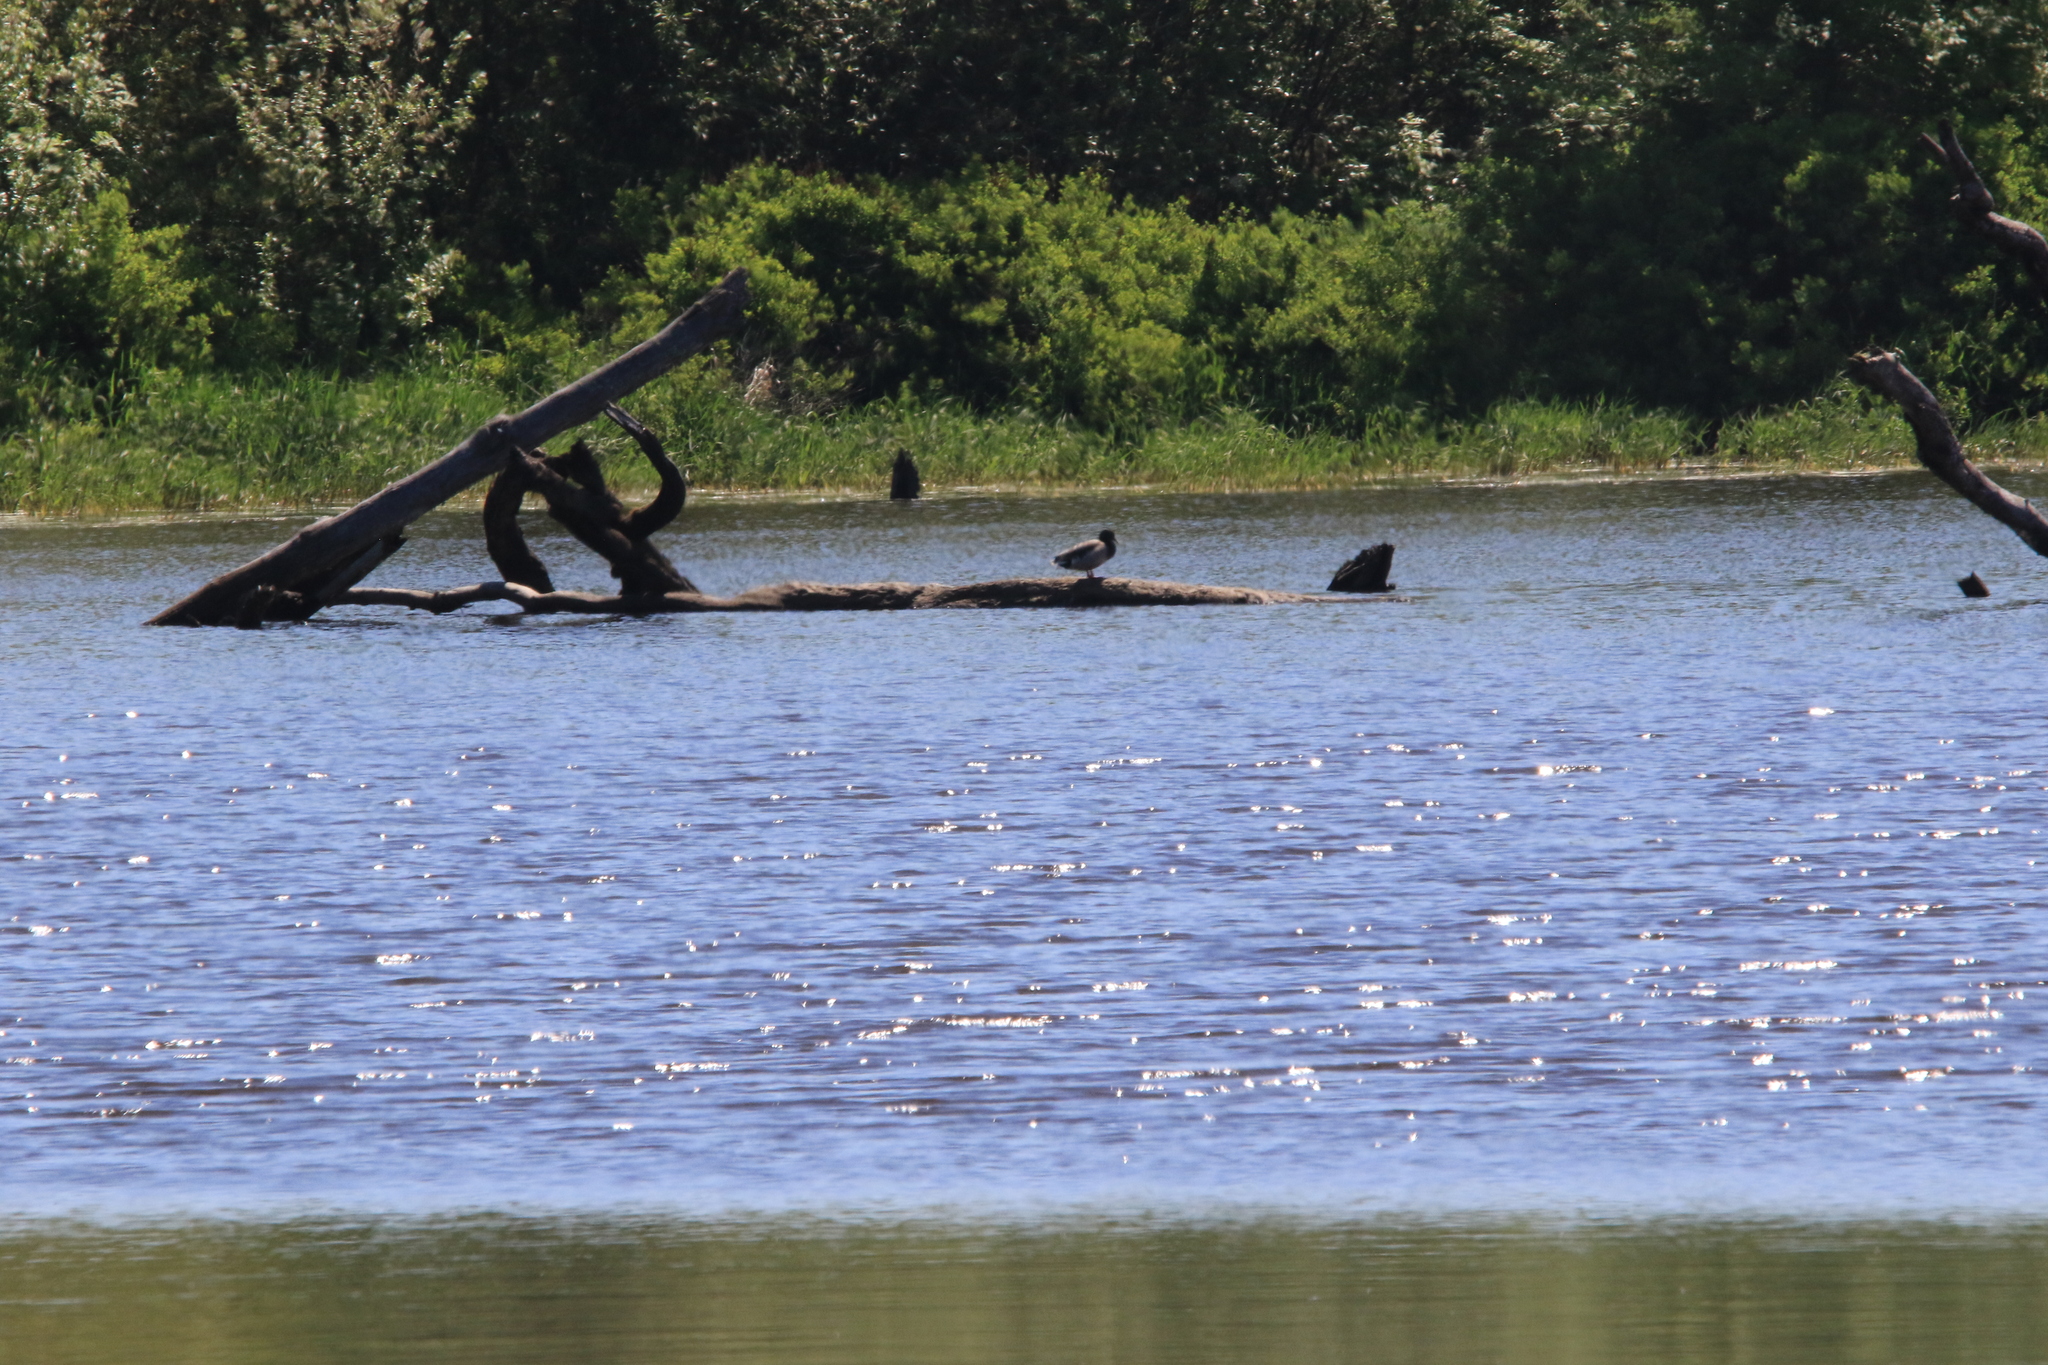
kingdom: Animalia
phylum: Chordata
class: Aves
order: Anseriformes
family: Anatidae
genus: Anas
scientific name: Anas platyrhynchos
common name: Mallard
